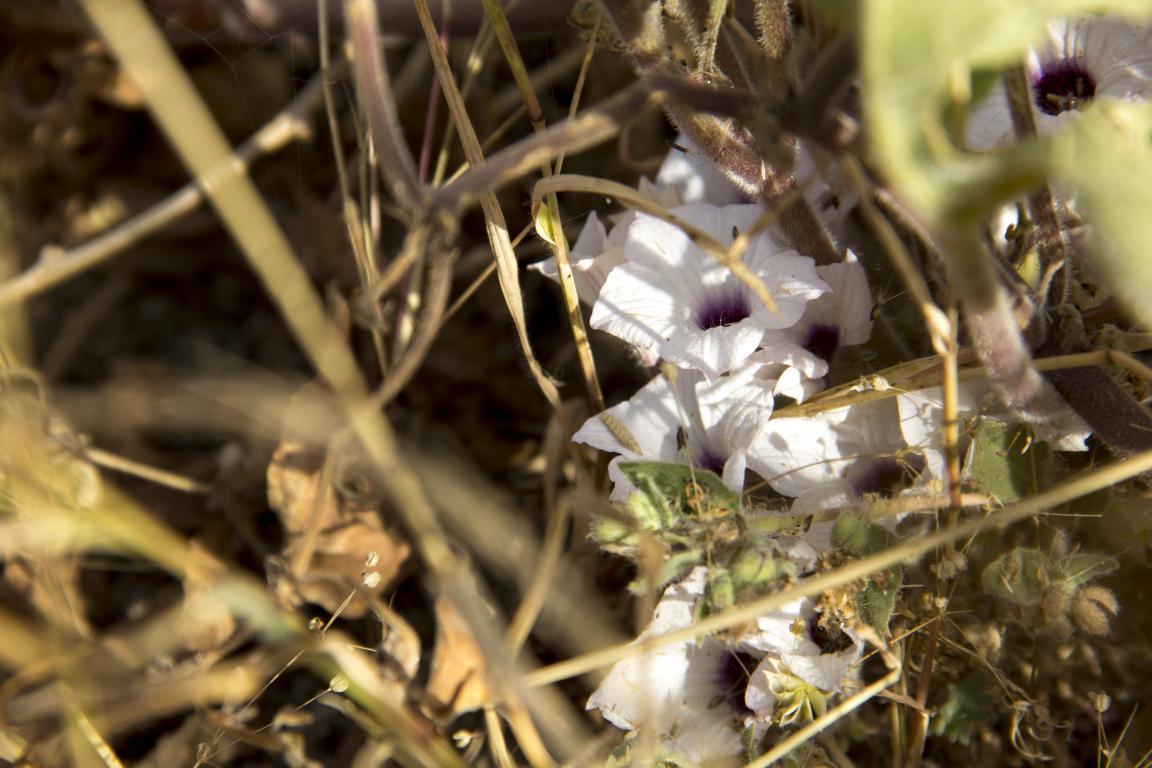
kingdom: Plantae
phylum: Tracheophyta
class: Magnoliopsida
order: Solanales
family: Solanaceae
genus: Exodeconus
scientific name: Exodeconus maritima
